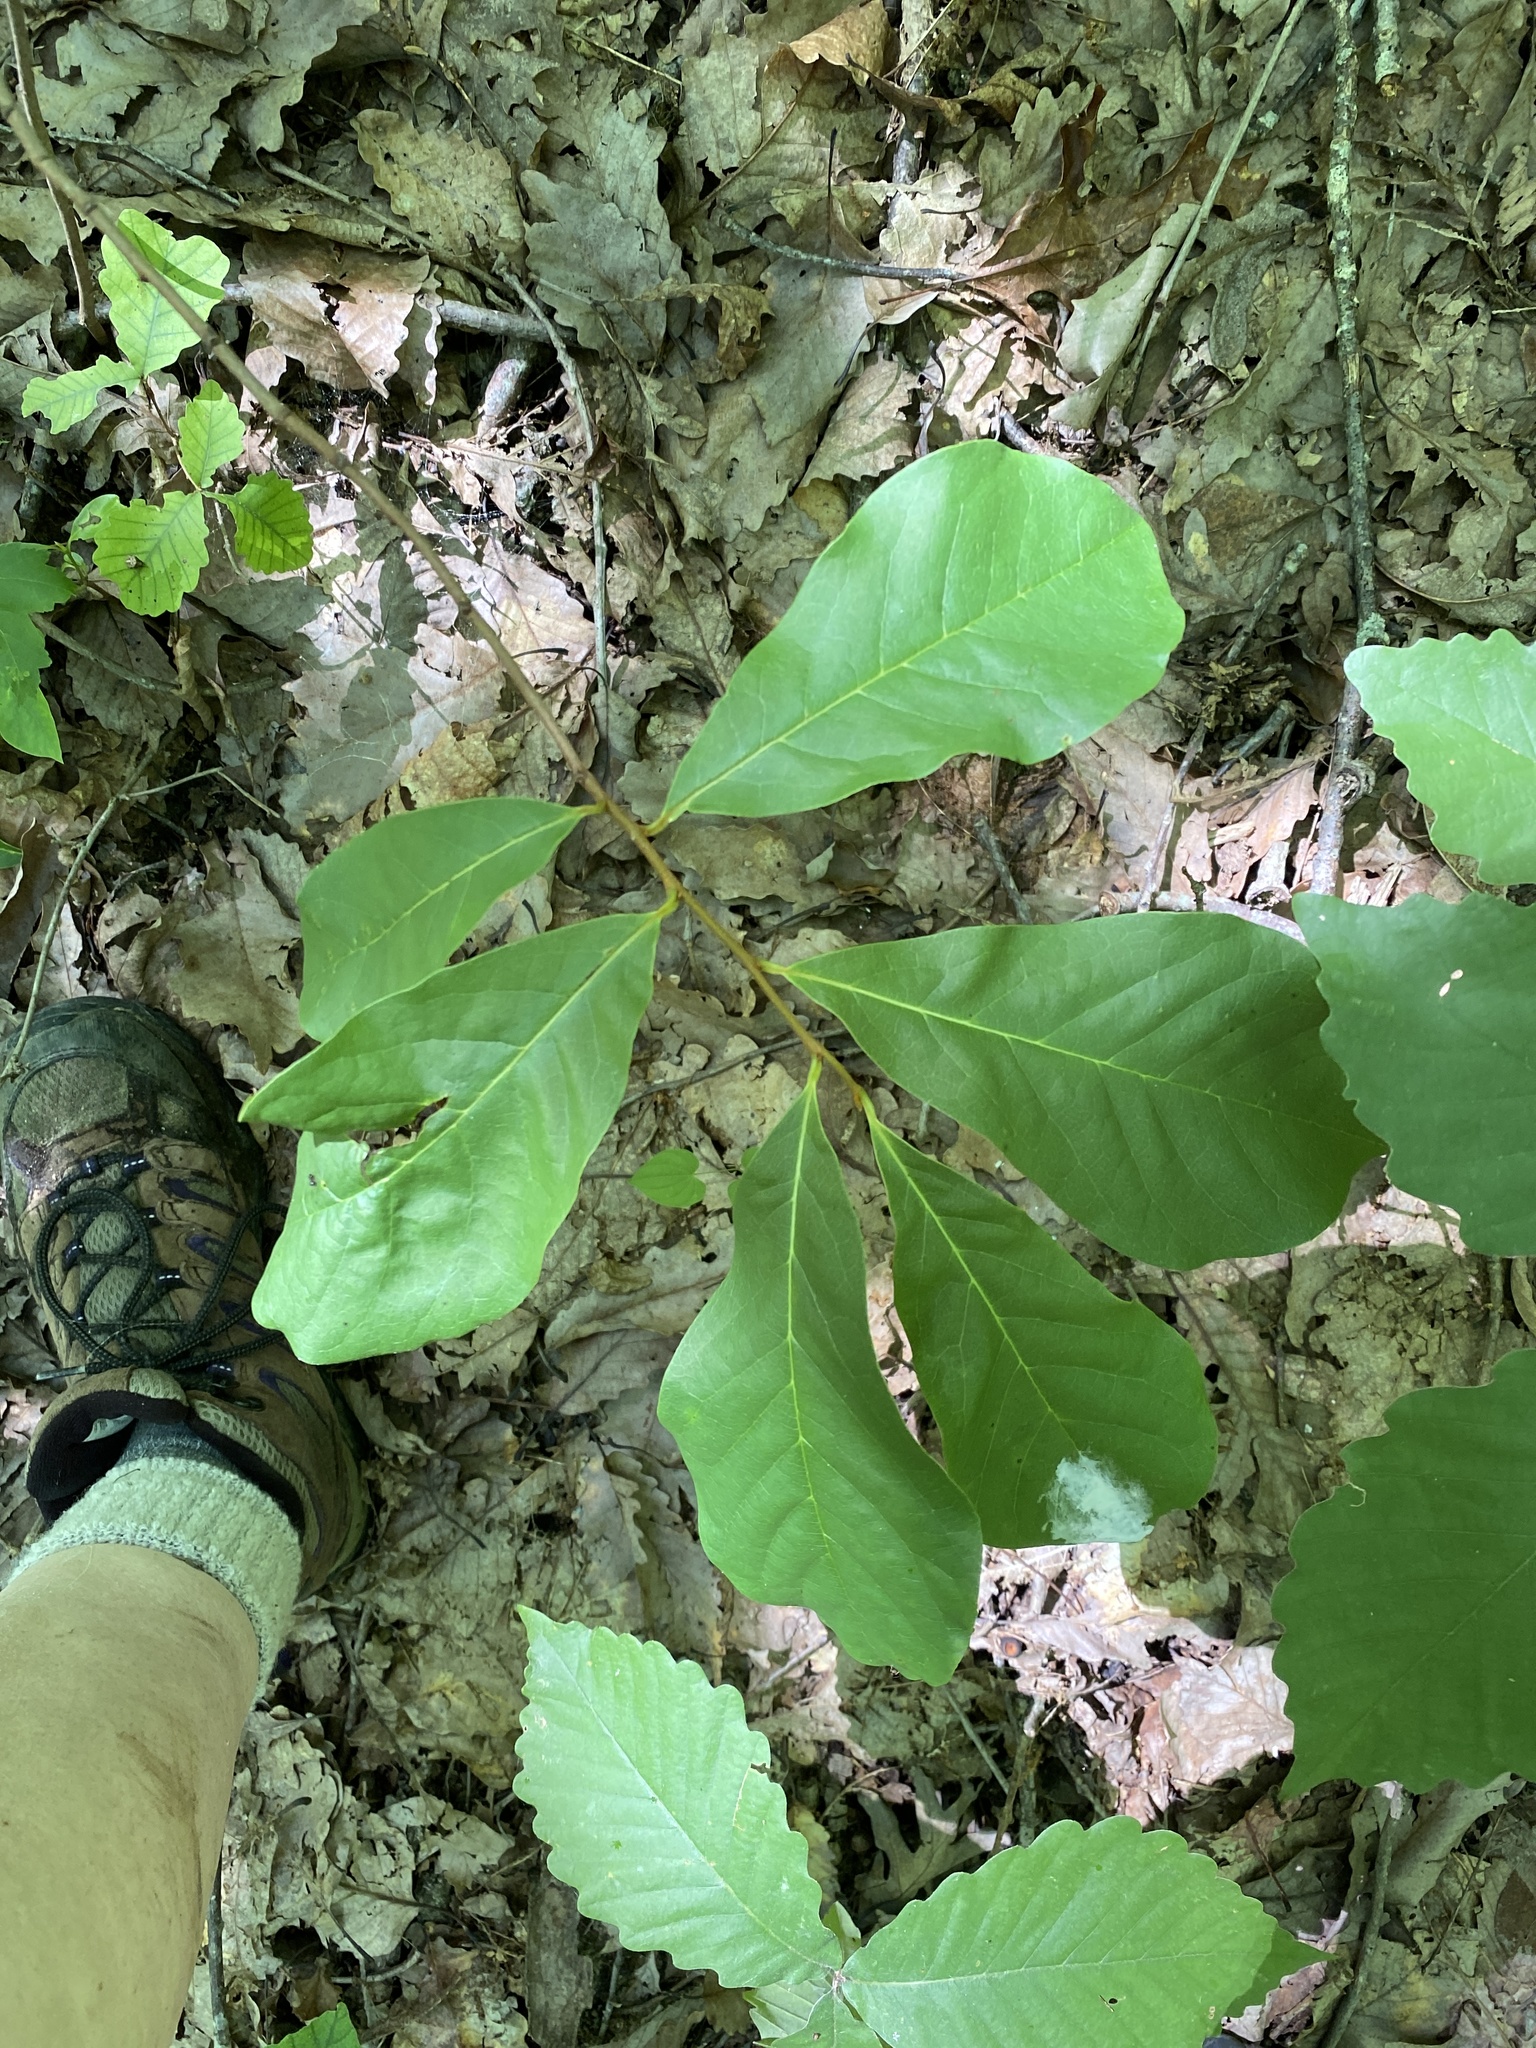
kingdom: Plantae
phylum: Tracheophyta
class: Magnoliopsida
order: Magnoliales
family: Annonaceae
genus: Asimina
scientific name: Asimina parviflora
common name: Dwarf pawpaw
